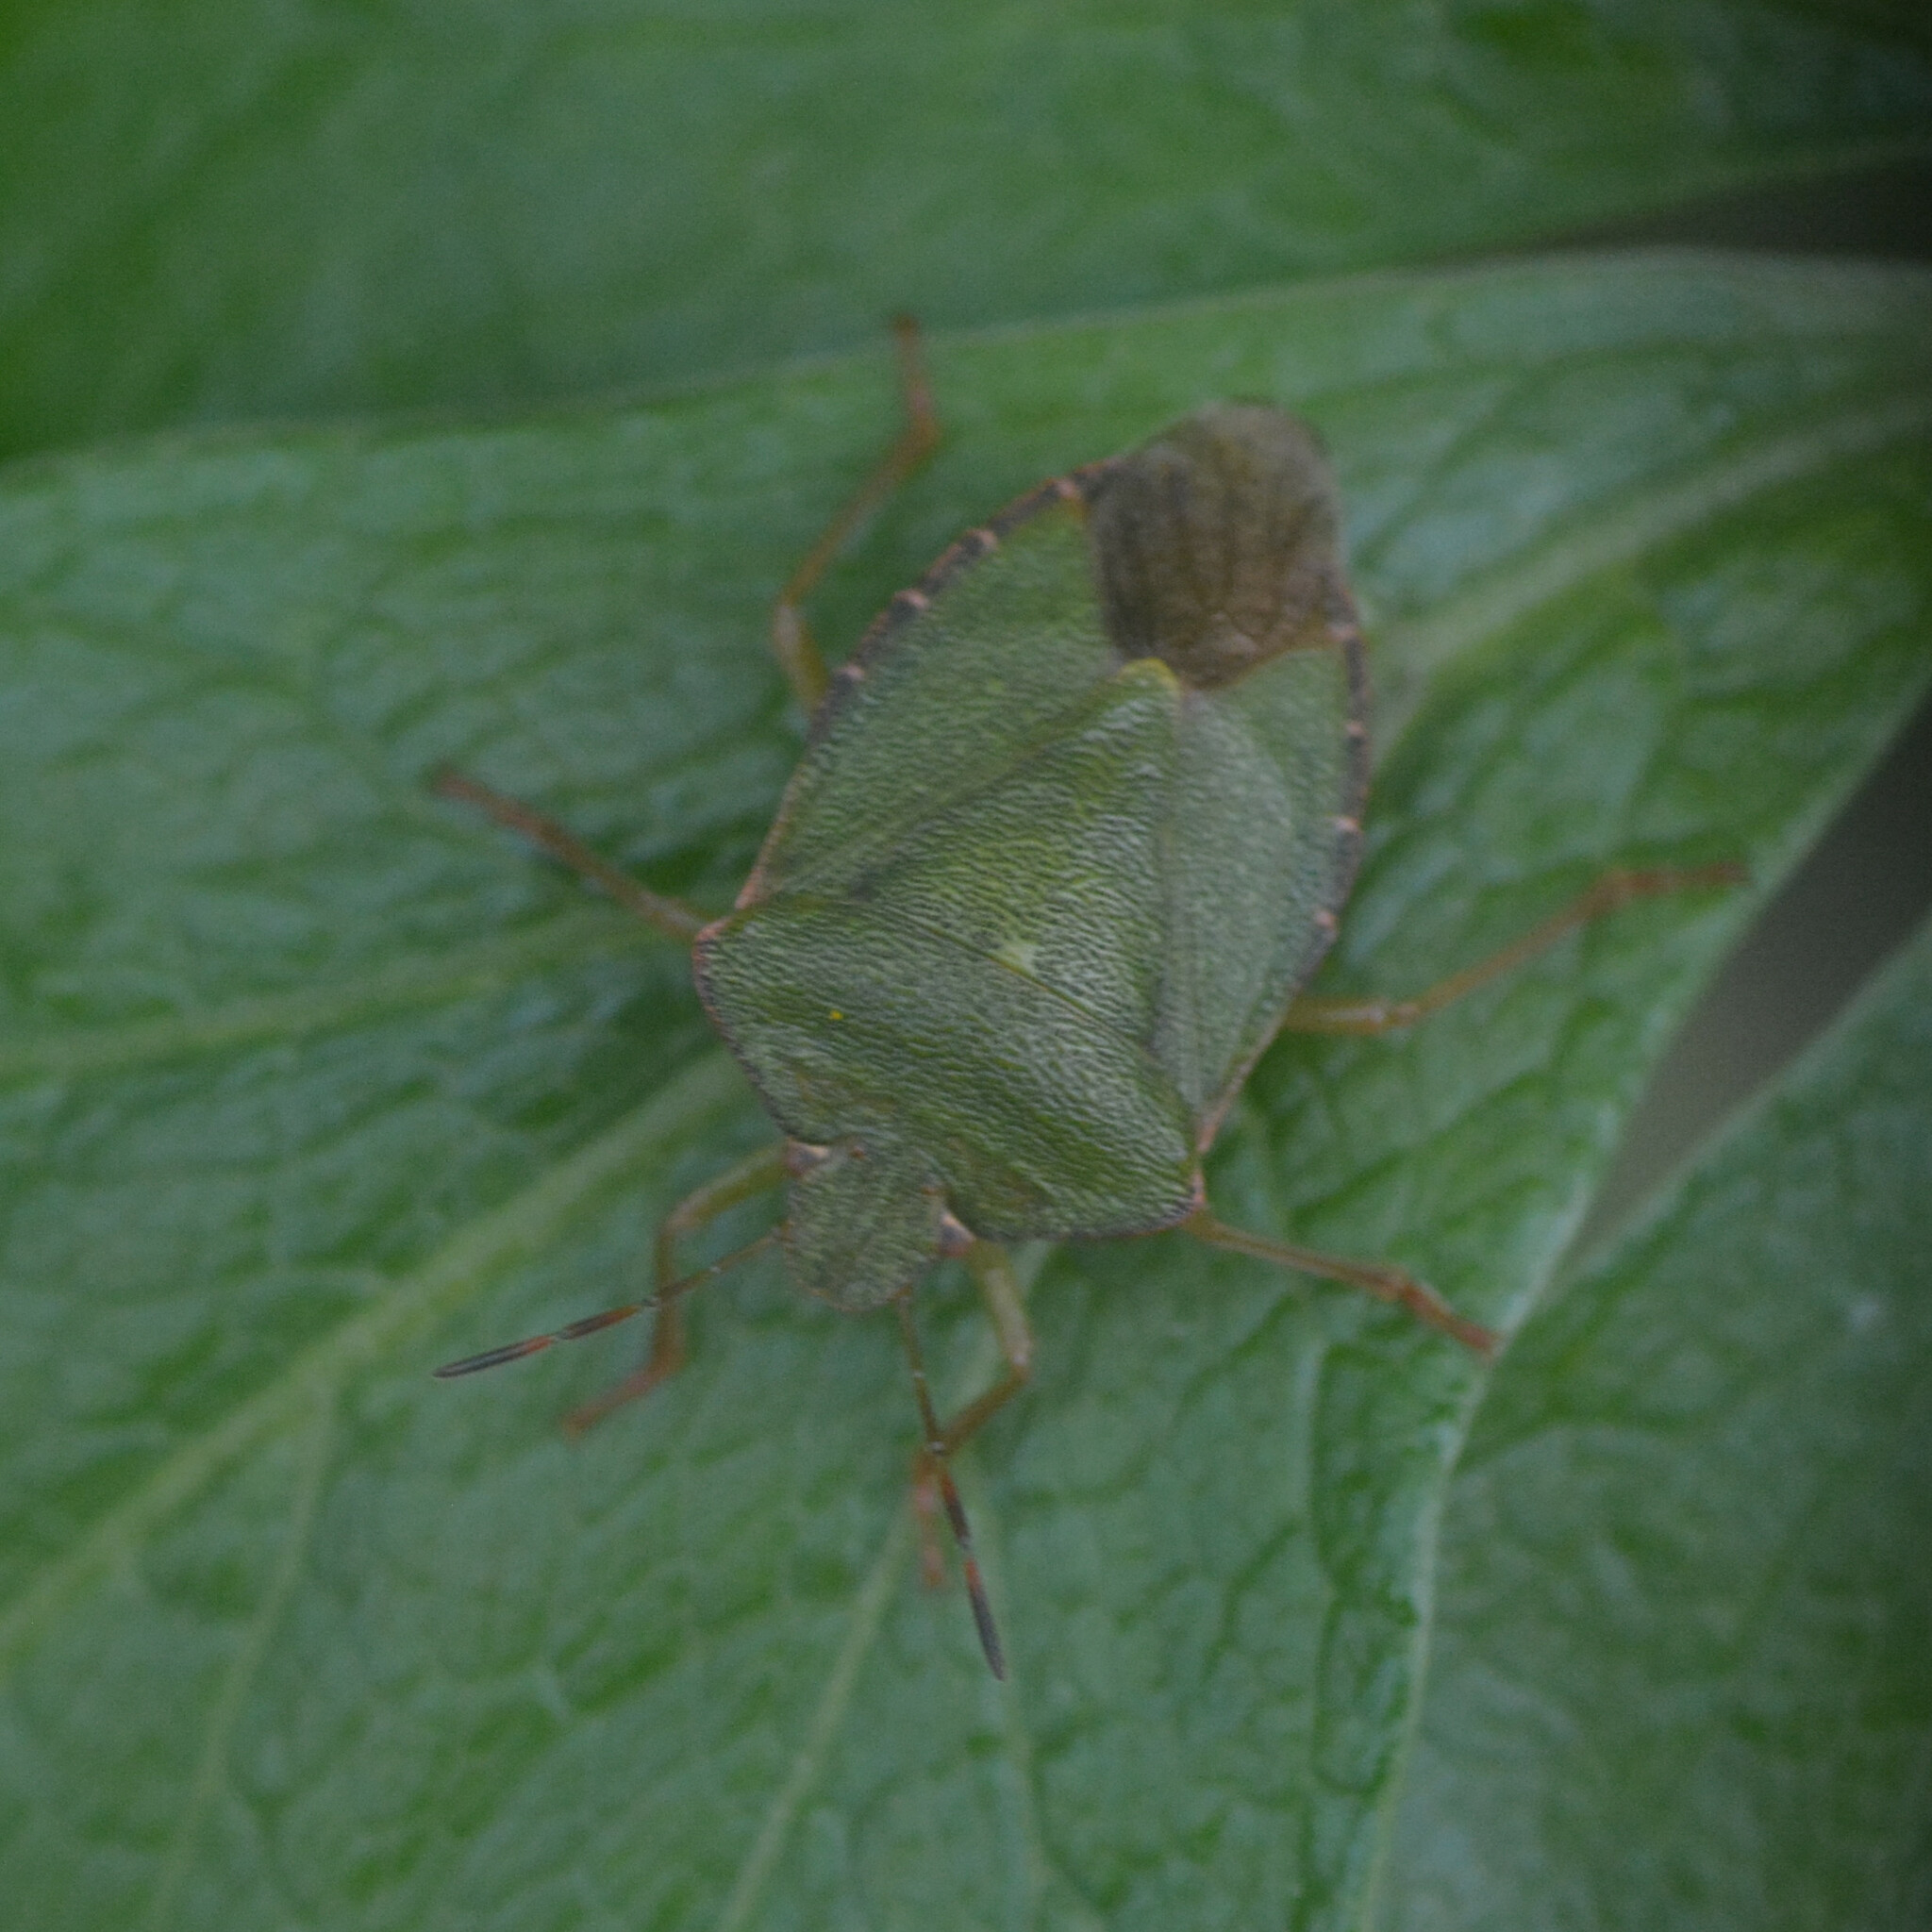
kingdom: Animalia
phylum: Arthropoda
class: Insecta
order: Hemiptera
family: Pentatomidae
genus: Palomena
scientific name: Palomena prasina
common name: Green shieldbug
